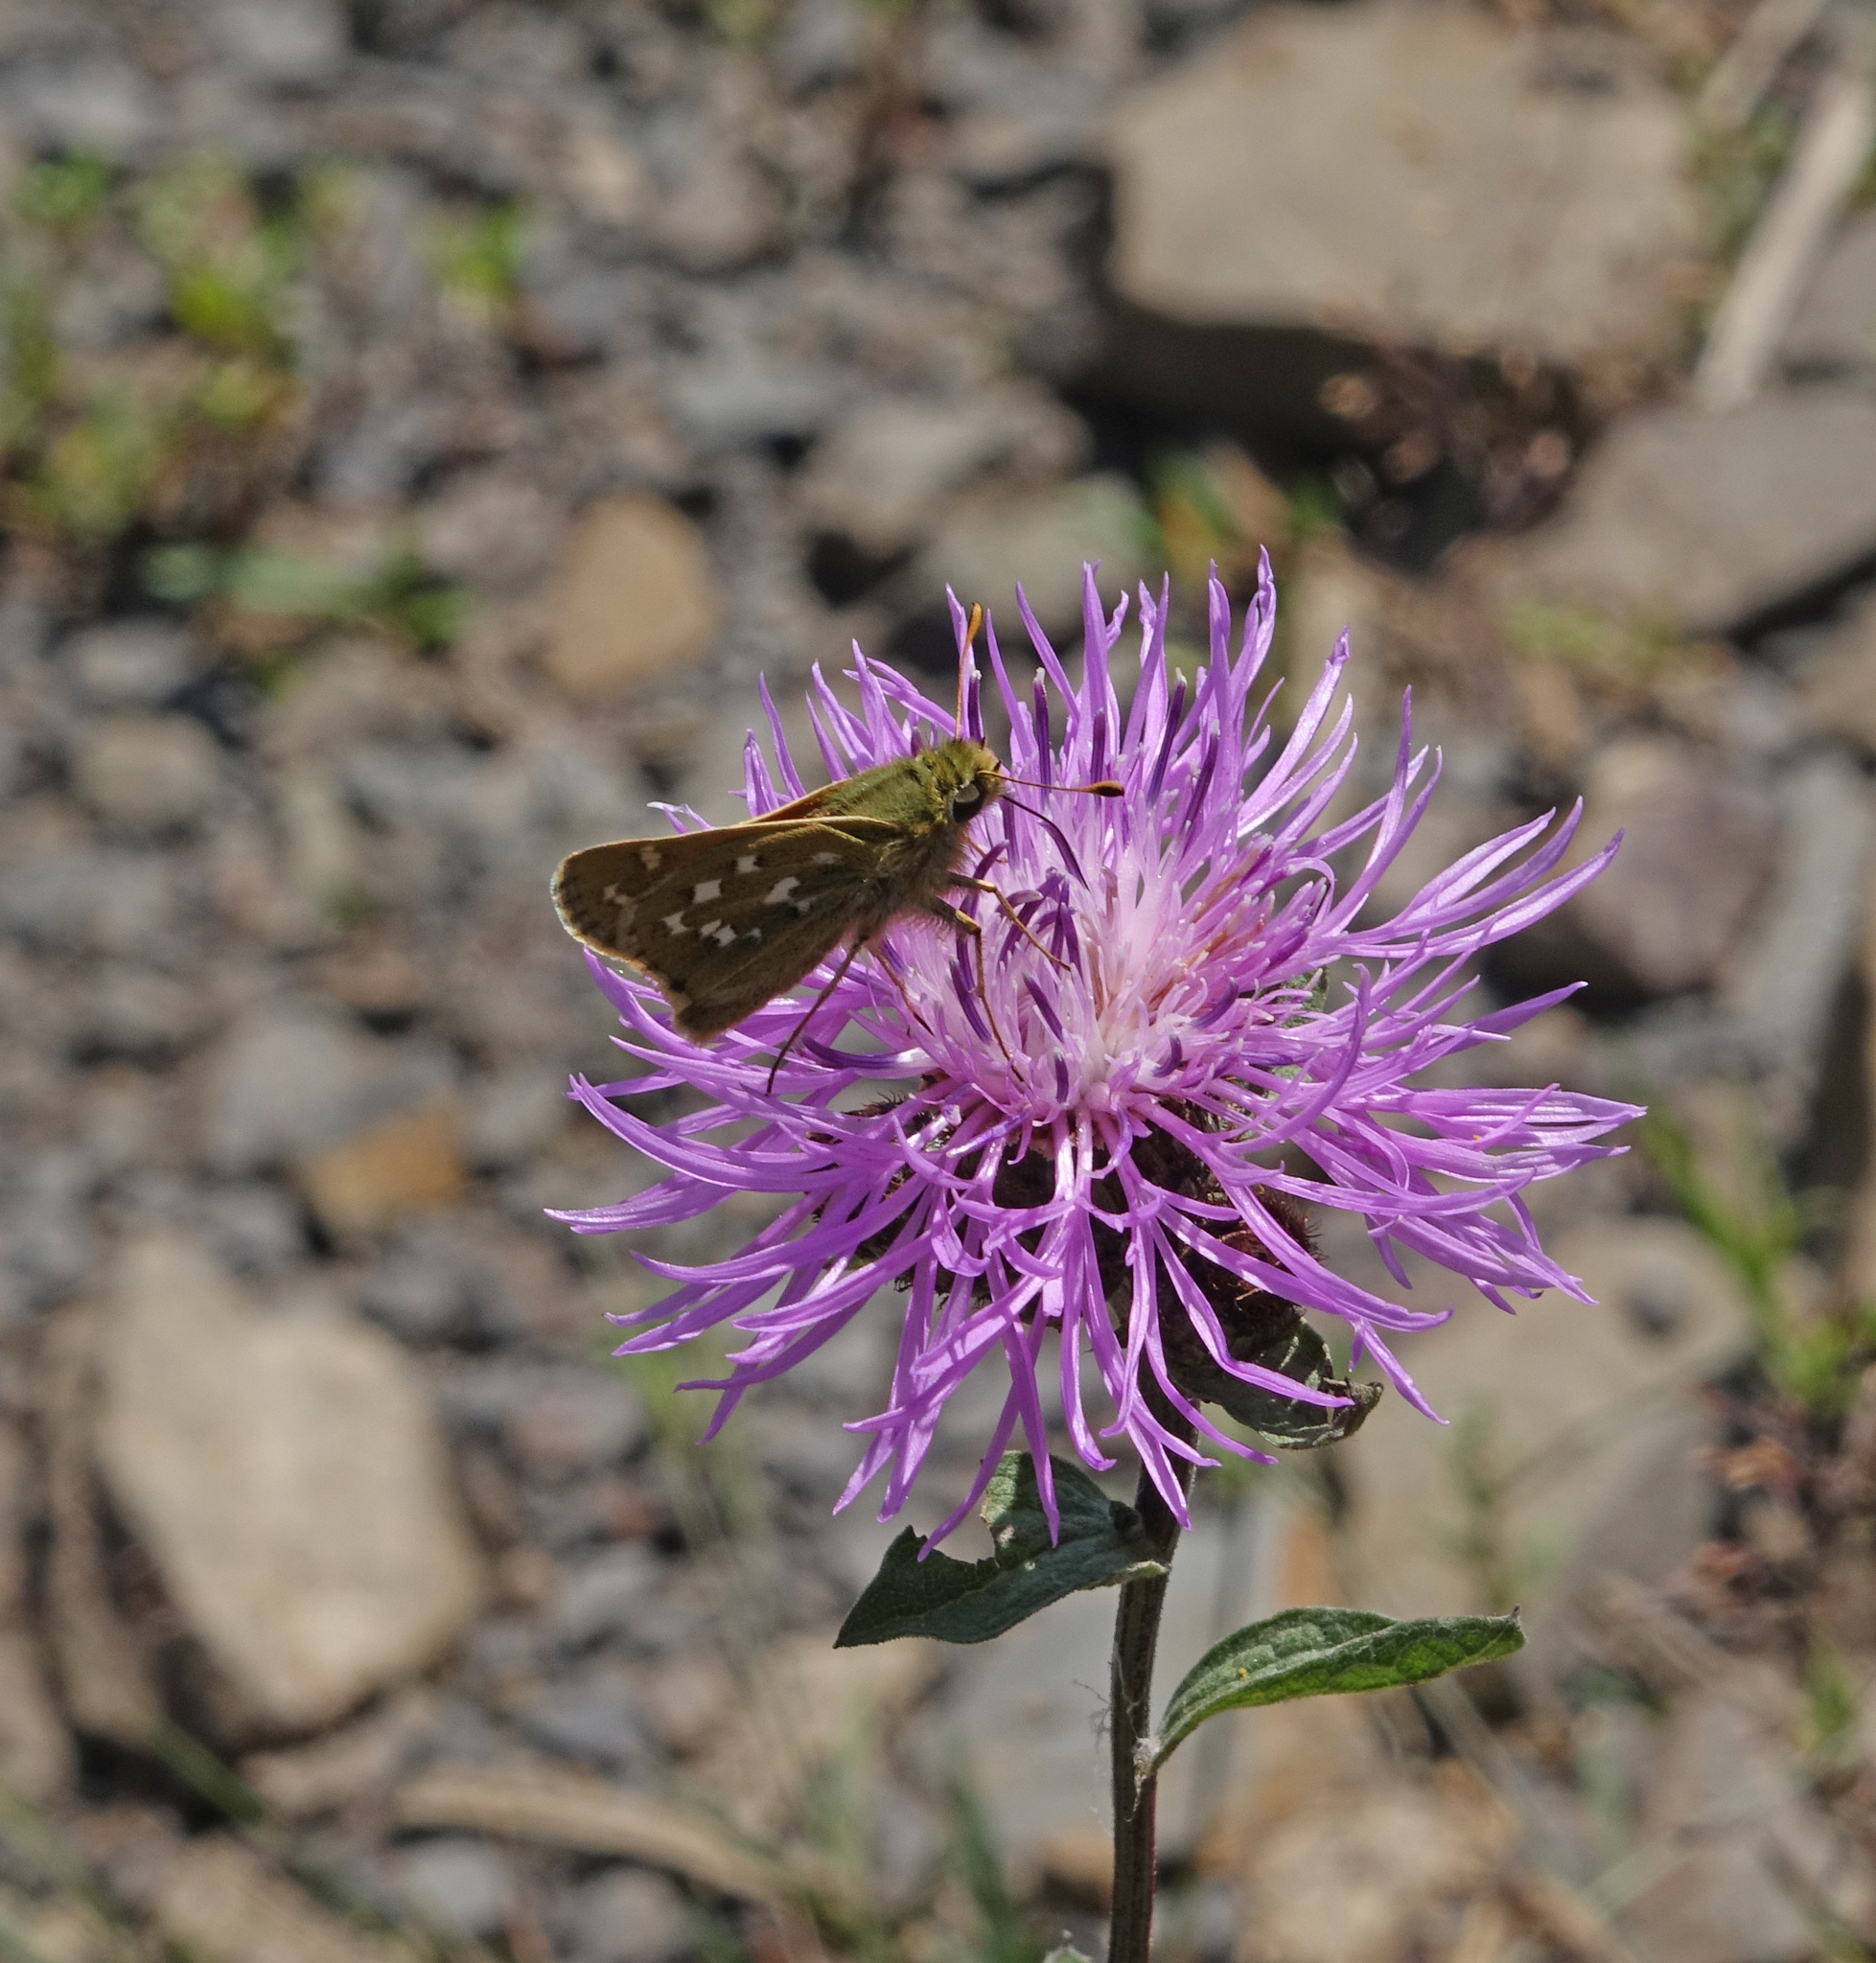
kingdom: Plantae
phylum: Tracheophyta
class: Magnoliopsida
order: Asterales
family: Asteraceae
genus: Centaurea
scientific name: Centaurea phrygia
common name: Wig knapweed
